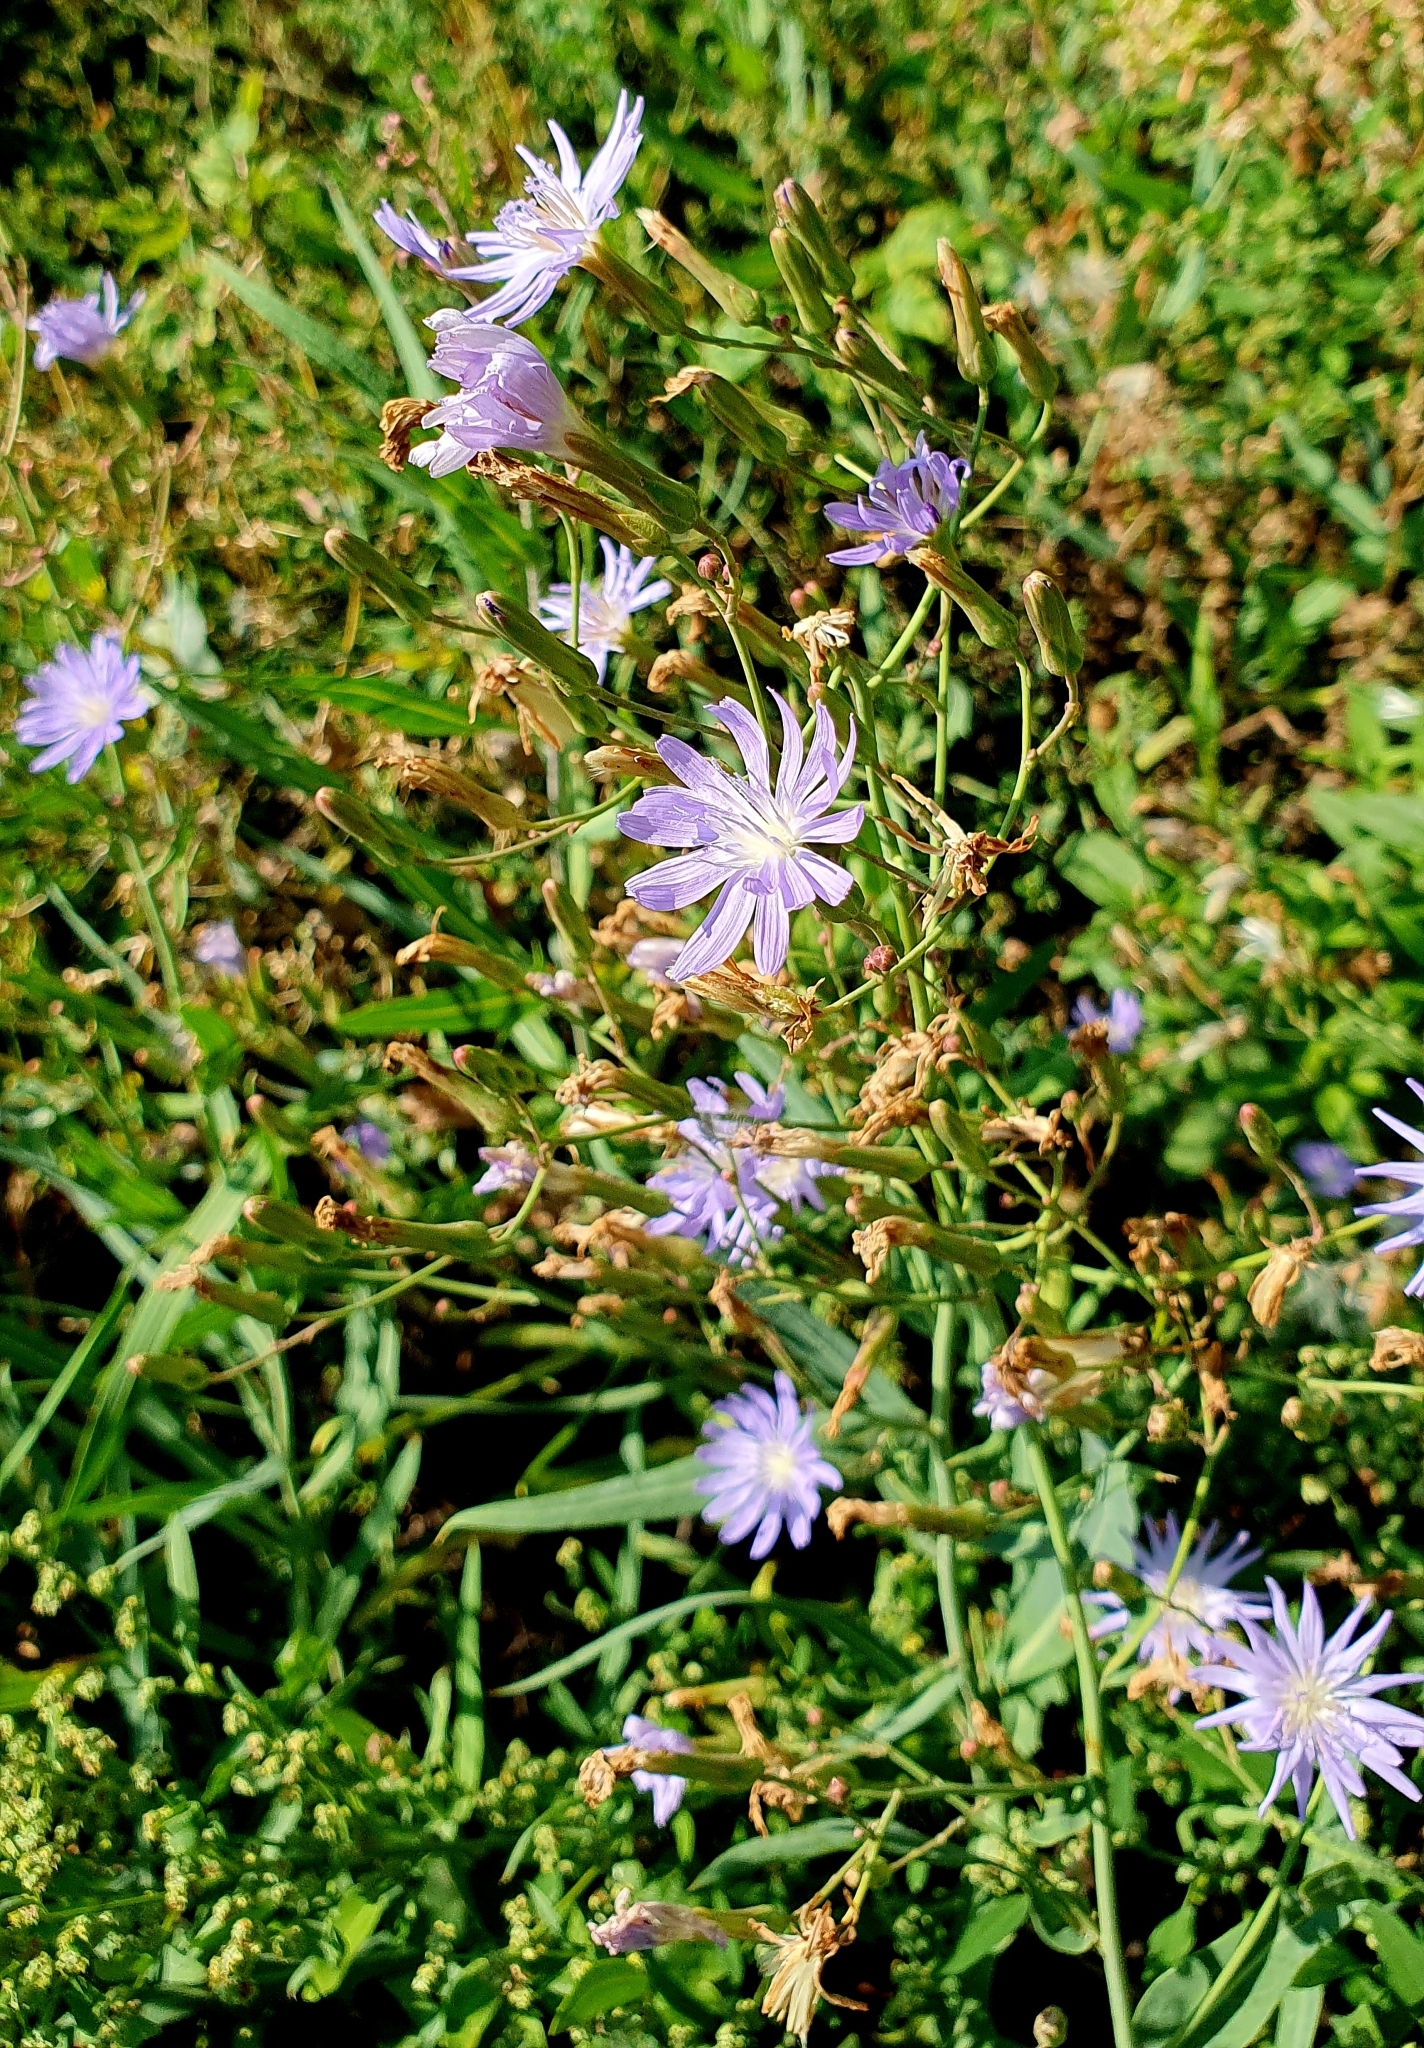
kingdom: Plantae
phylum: Tracheophyta
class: Magnoliopsida
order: Asterales
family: Asteraceae
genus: Lactuca
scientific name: Lactuca tatarica
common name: Blue lettuce
